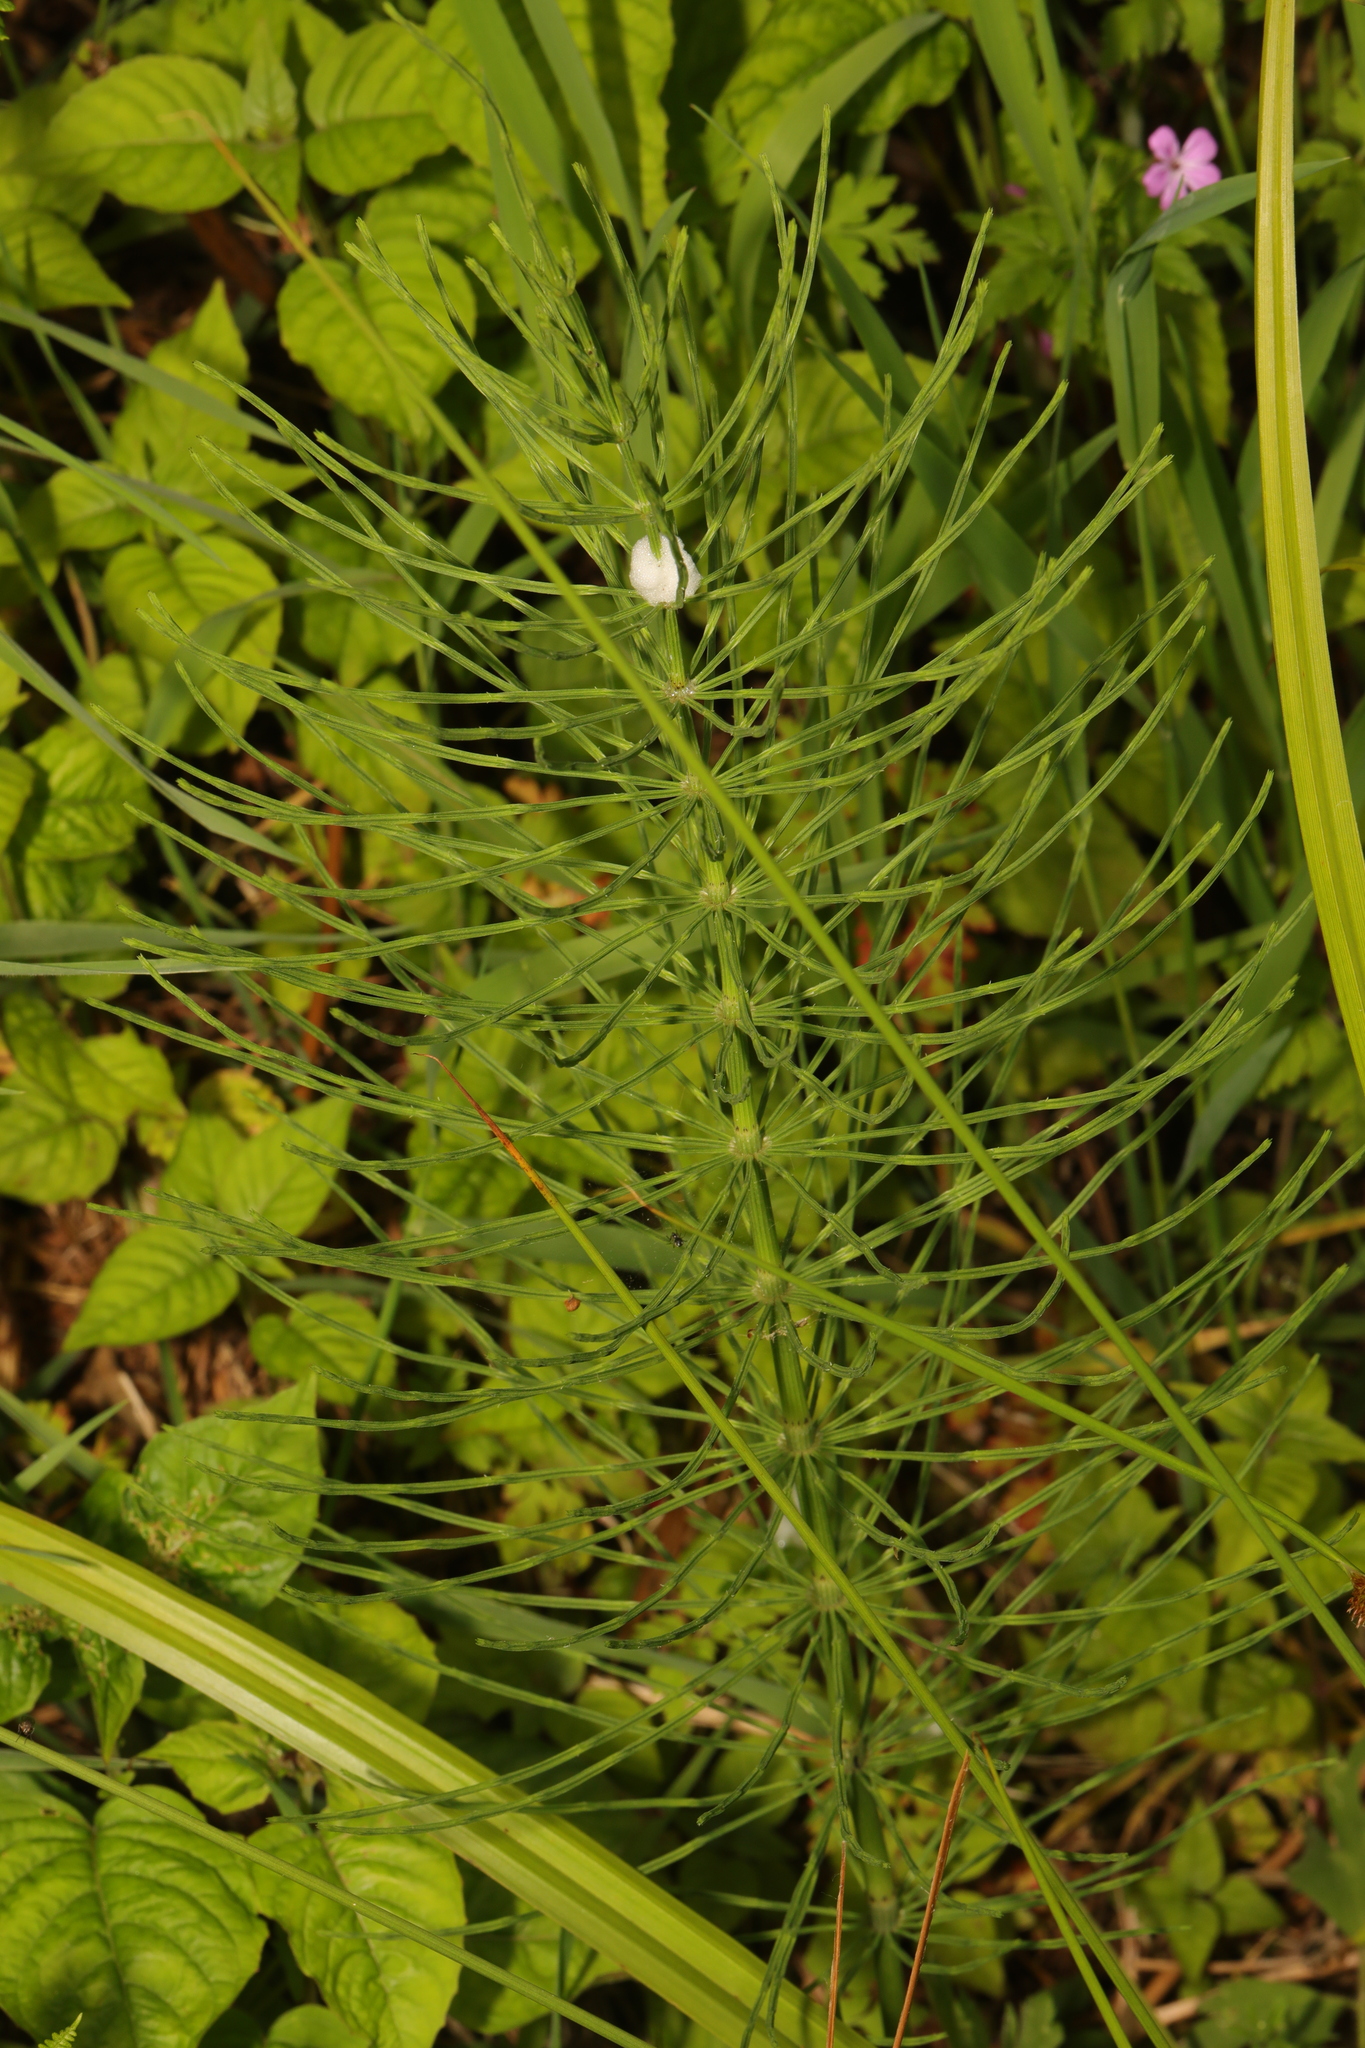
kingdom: Plantae
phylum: Tracheophyta
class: Polypodiopsida
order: Equisetales
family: Equisetaceae
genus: Equisetum
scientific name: Equisetum arvense
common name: Field horsetail
